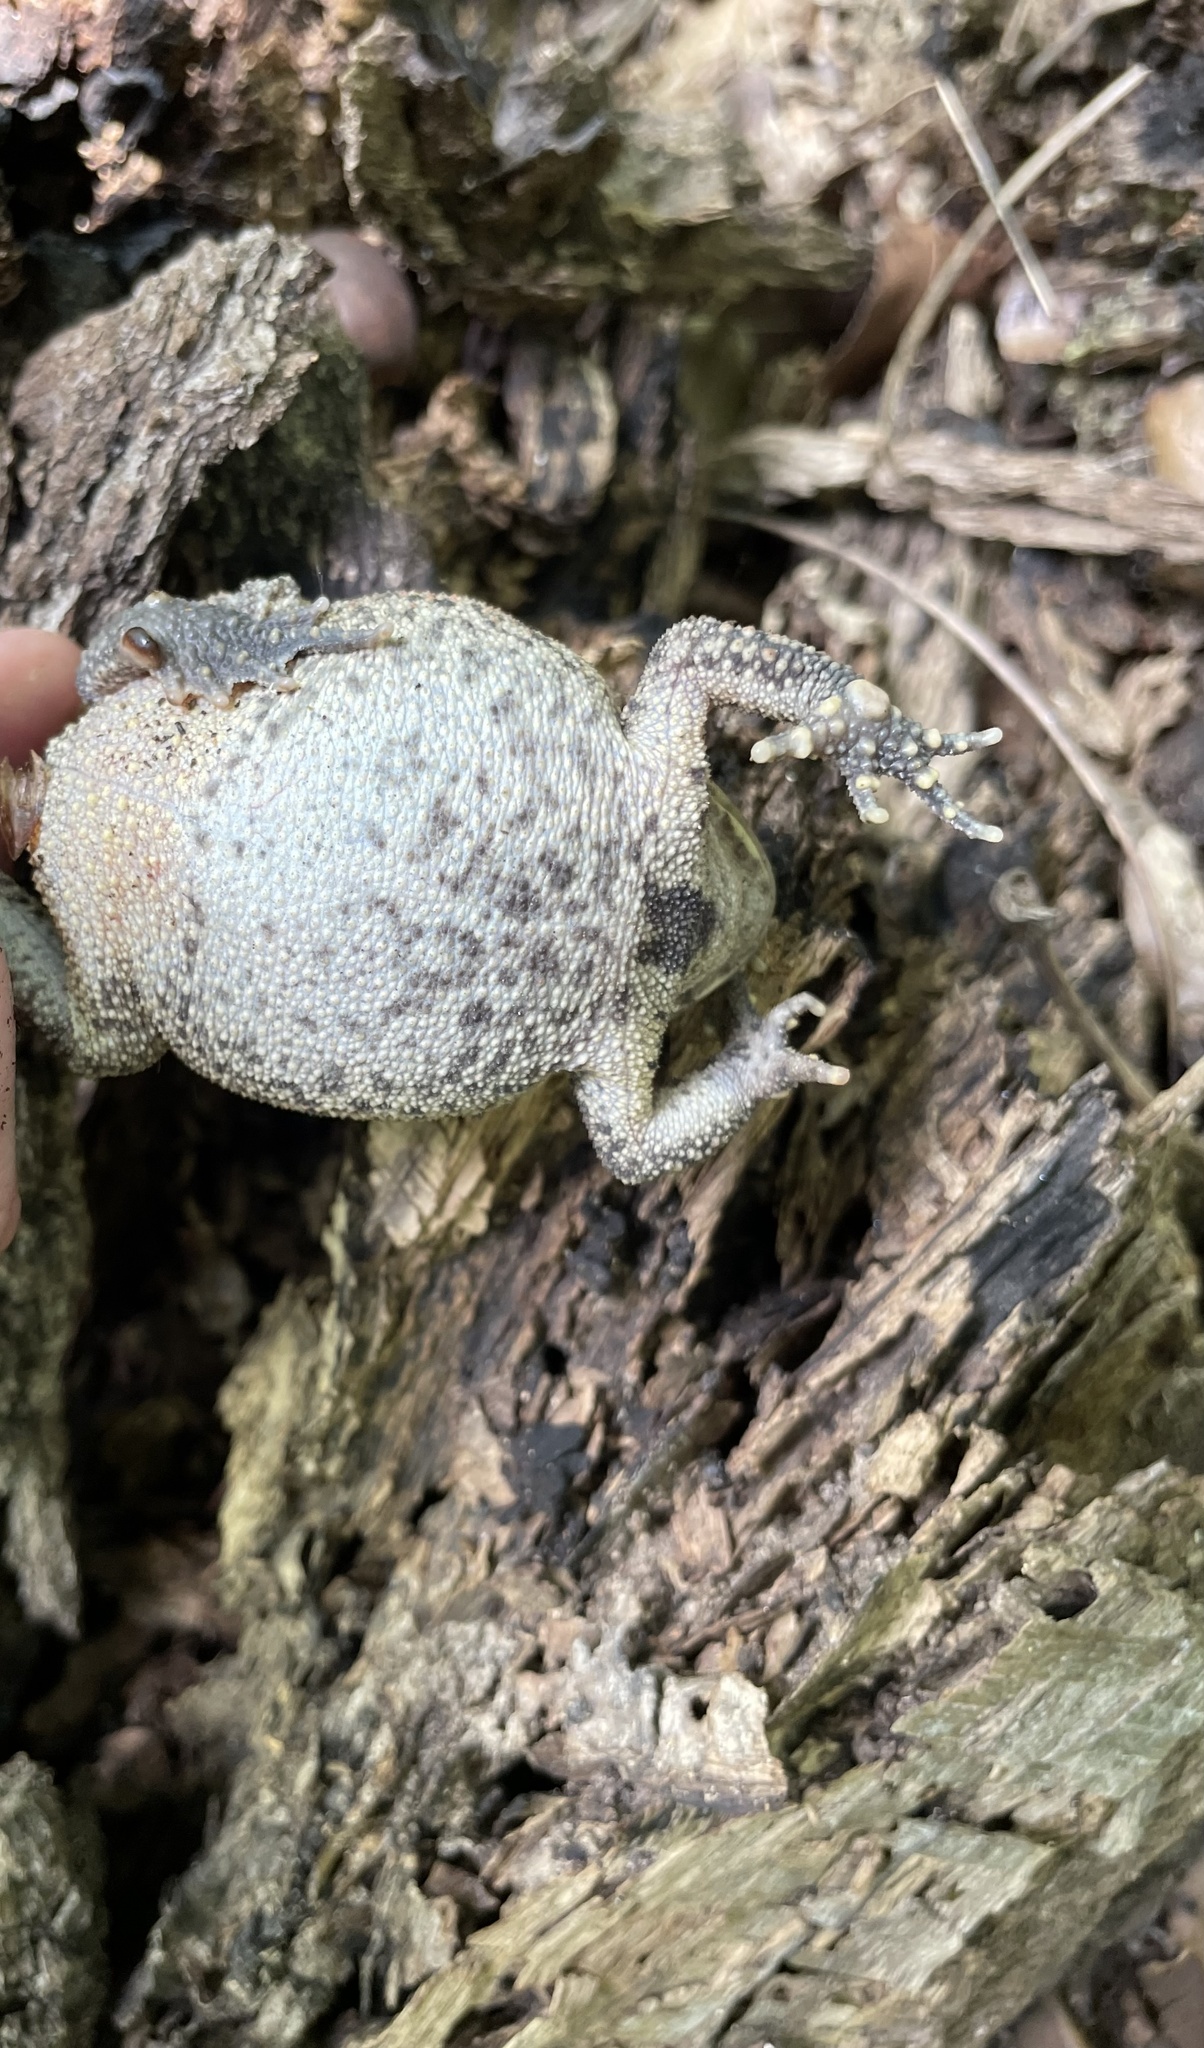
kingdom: Animalia
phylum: Chordata
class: Amphibia
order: Anura
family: Bufonidae
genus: Anaxyrus
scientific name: Anaxyrus americanus
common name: American toad
